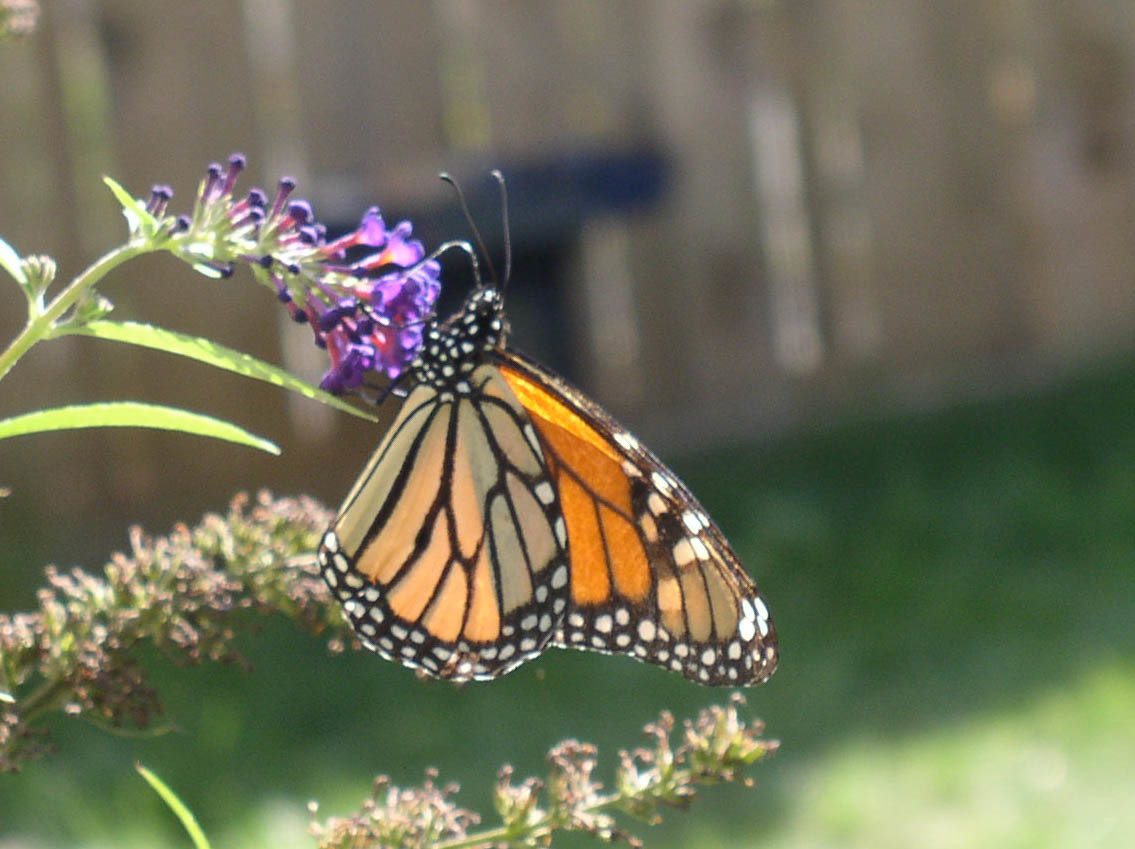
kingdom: Animalia
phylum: Arthropoda
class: Insecta
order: Lepidoptera
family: Nymphalidae
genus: Danaus
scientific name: Danaus plexippus
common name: Monarch
